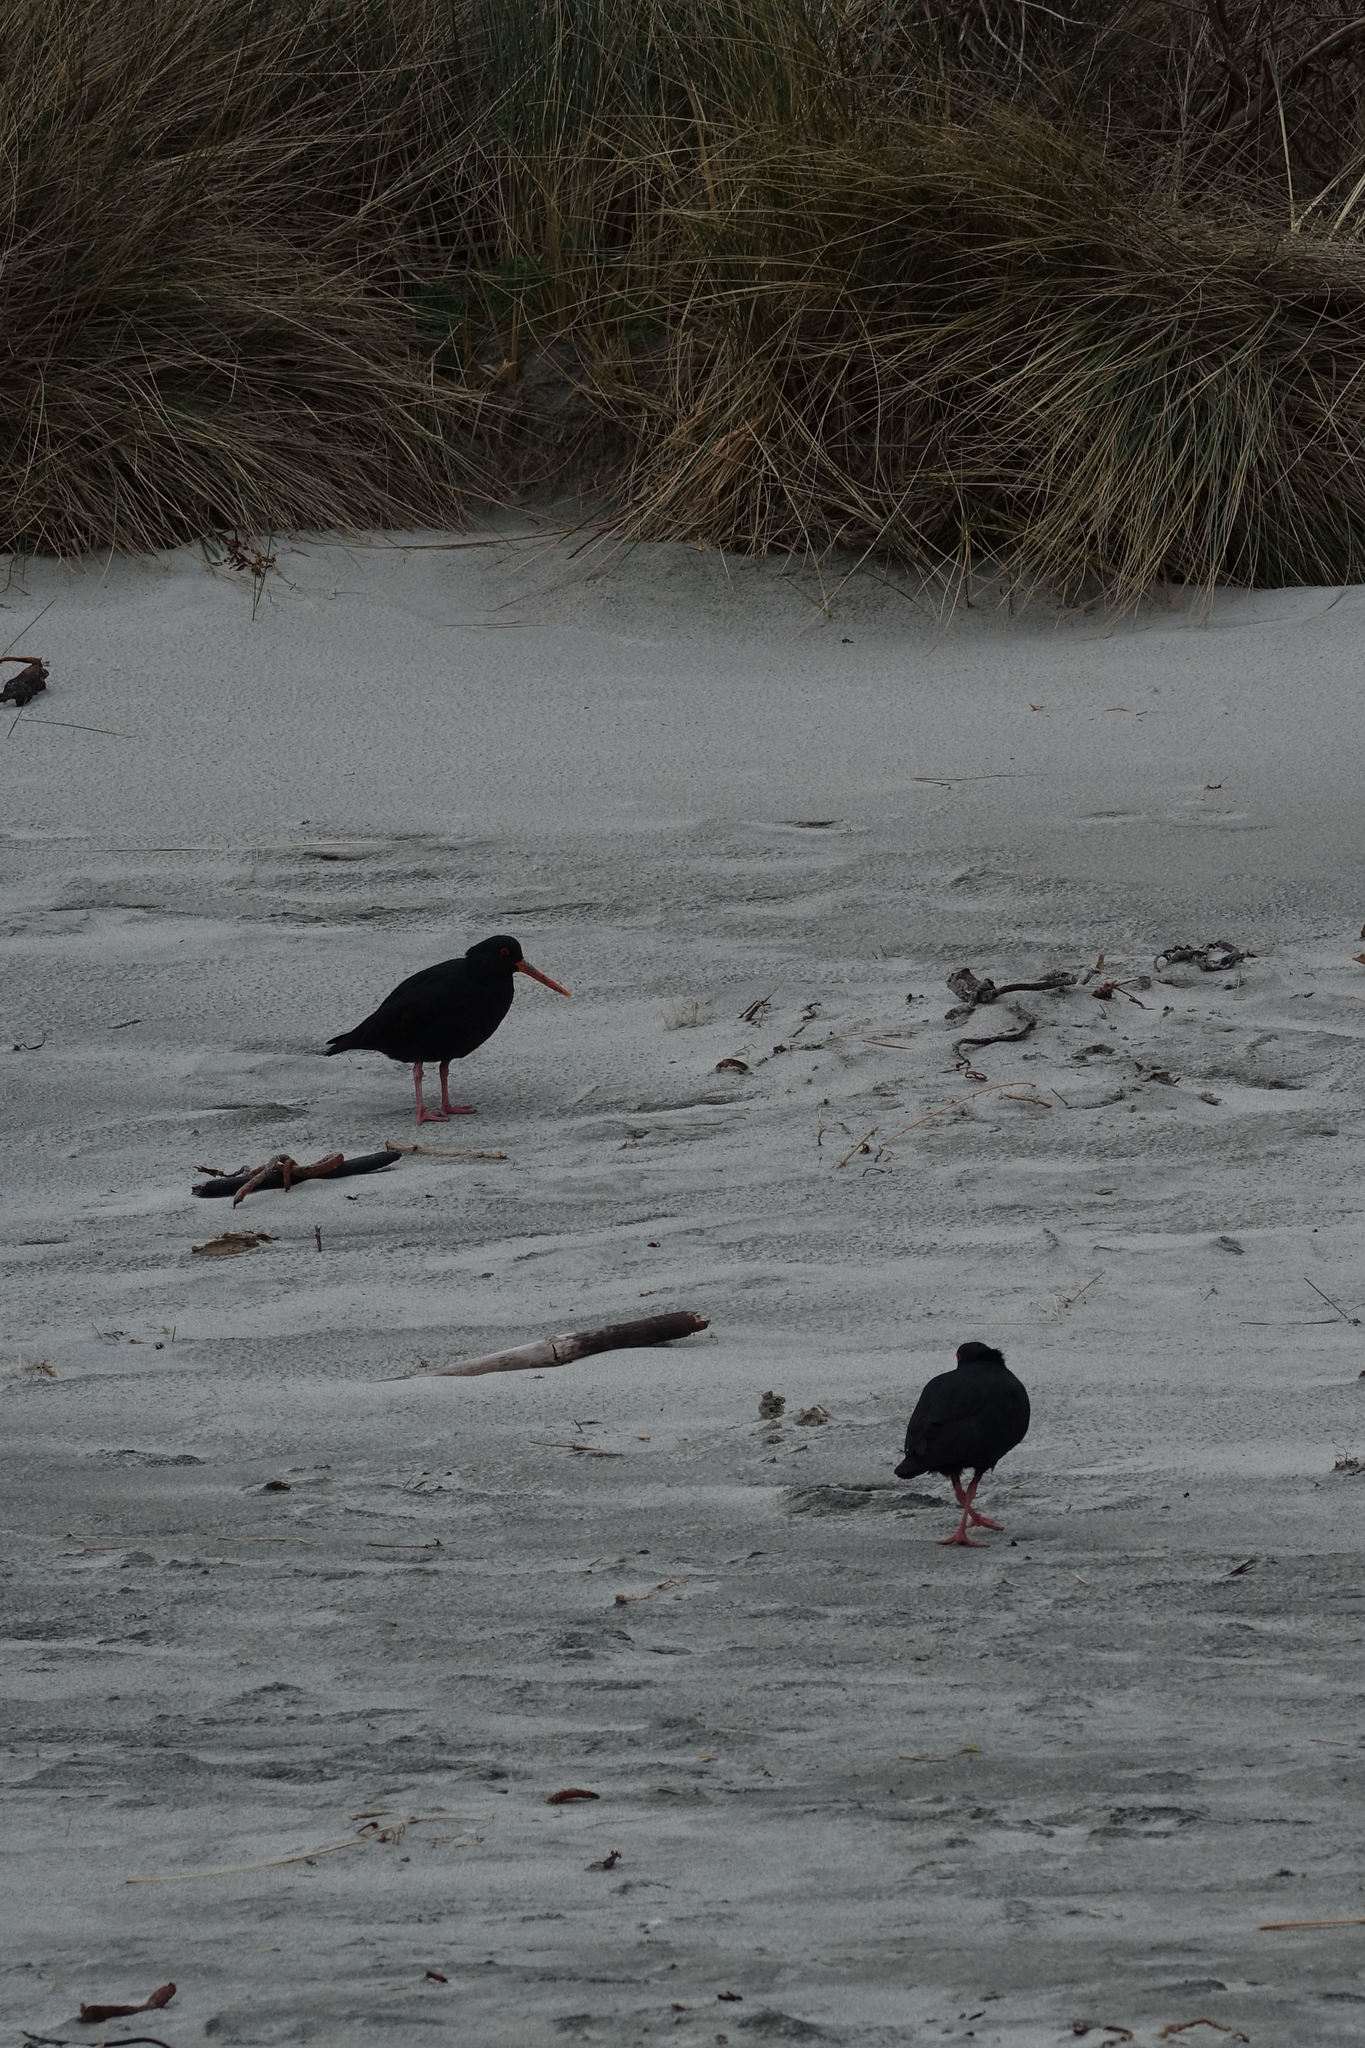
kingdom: Animalia
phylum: Chordata
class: Aves
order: Charadriiformes
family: Haematopodidae
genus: Haematopus
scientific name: Haematopus unicolor
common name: Variable oystercatcher
